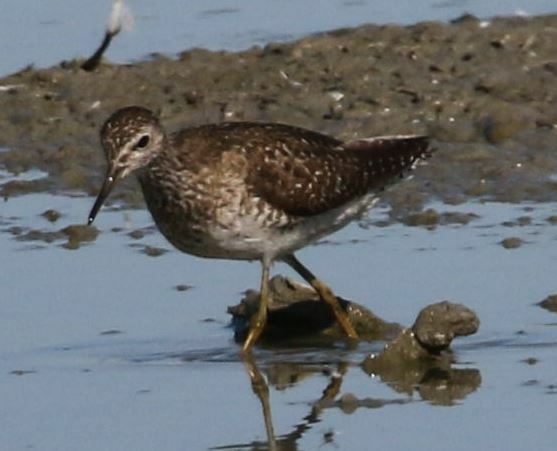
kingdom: Animalia
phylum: Chordata
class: Aves
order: Charadriiformes
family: Scolopacidae
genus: Tringa
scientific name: Tringa glareola
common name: Wood sandpiper
